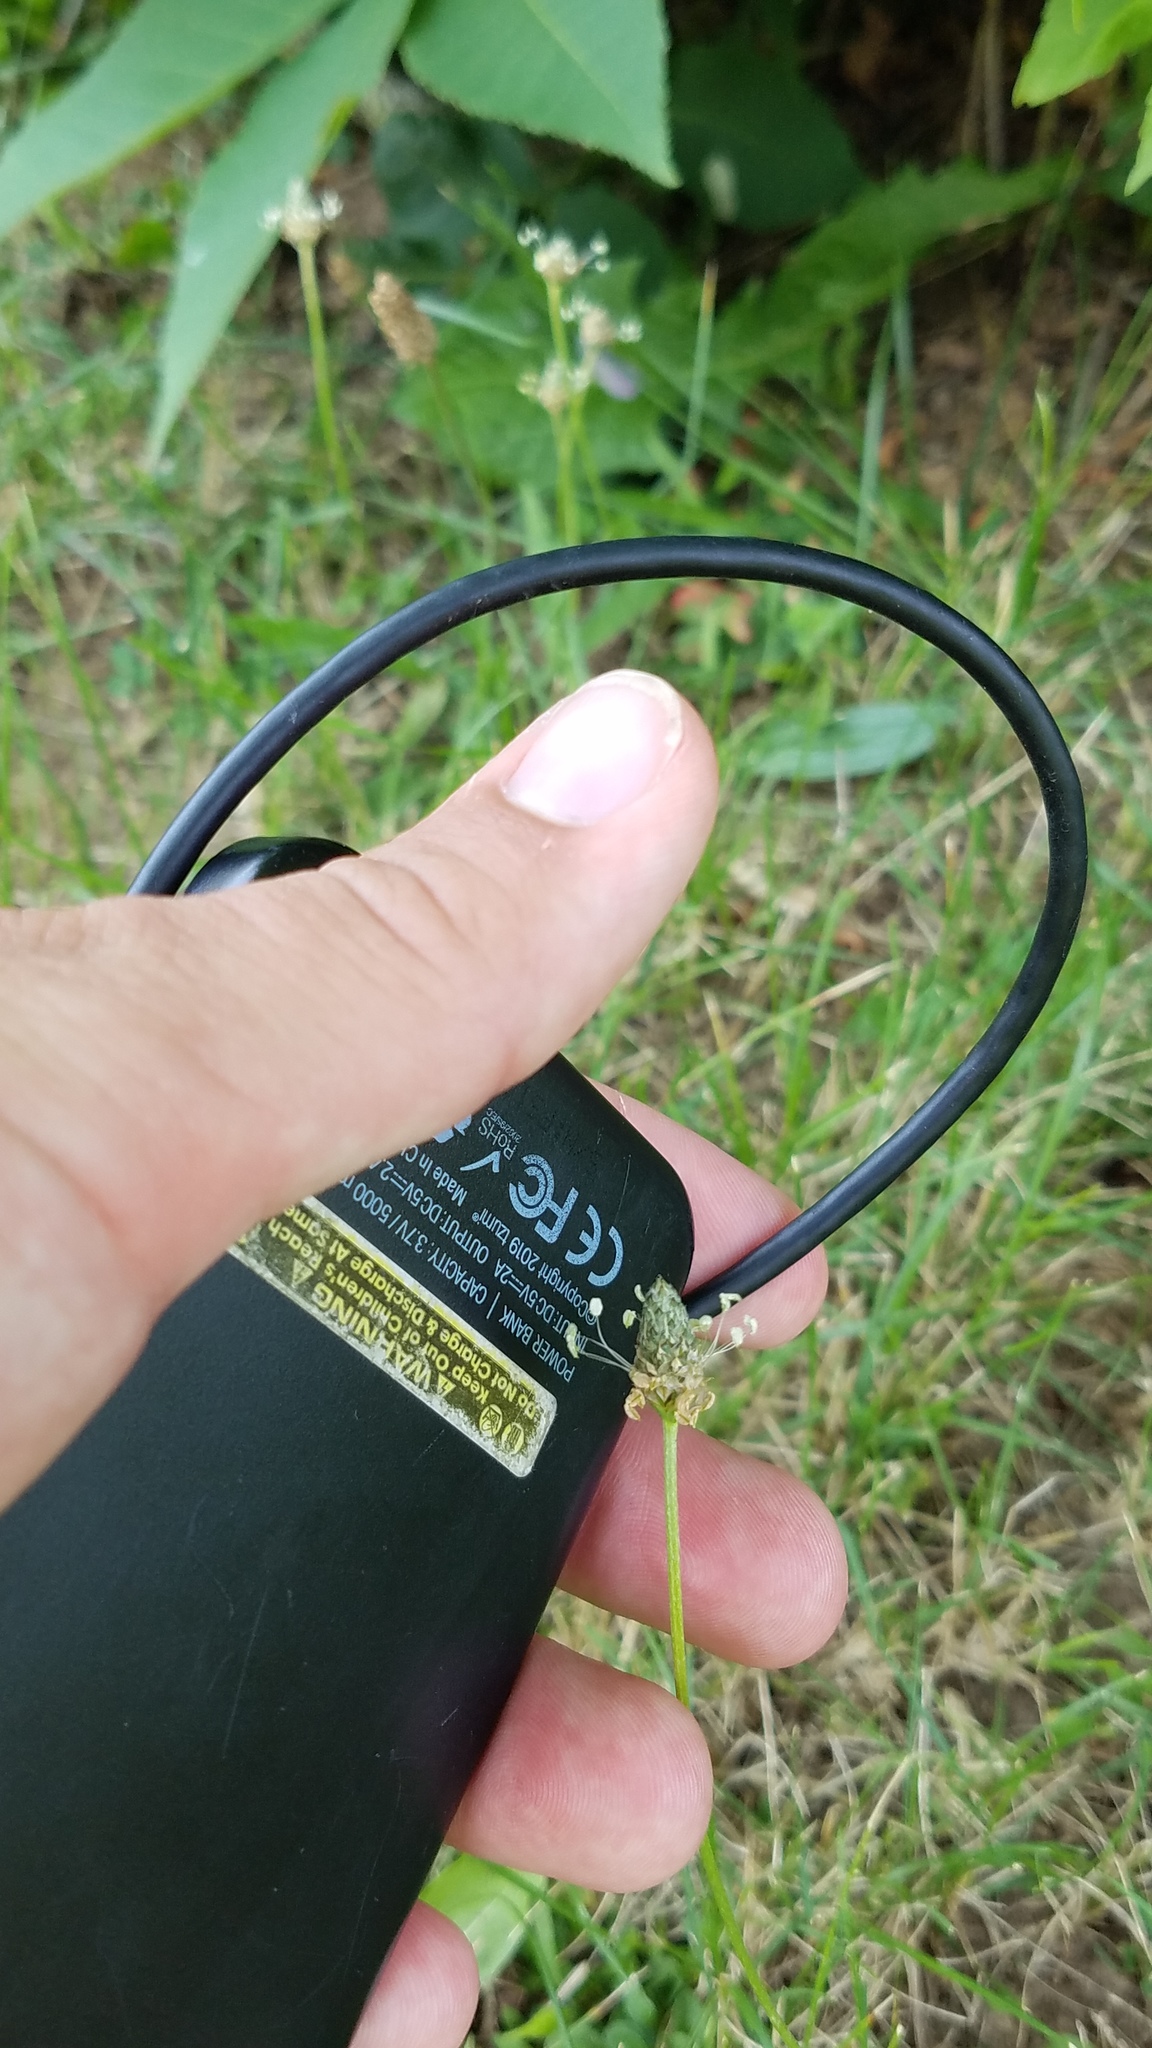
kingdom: Plantae
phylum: Tracheophyta
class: Magnoliopsida
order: Lamiales
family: Plantaginaceae
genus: Plantago
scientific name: Plantago lanceolata
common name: Ribwort plantain
